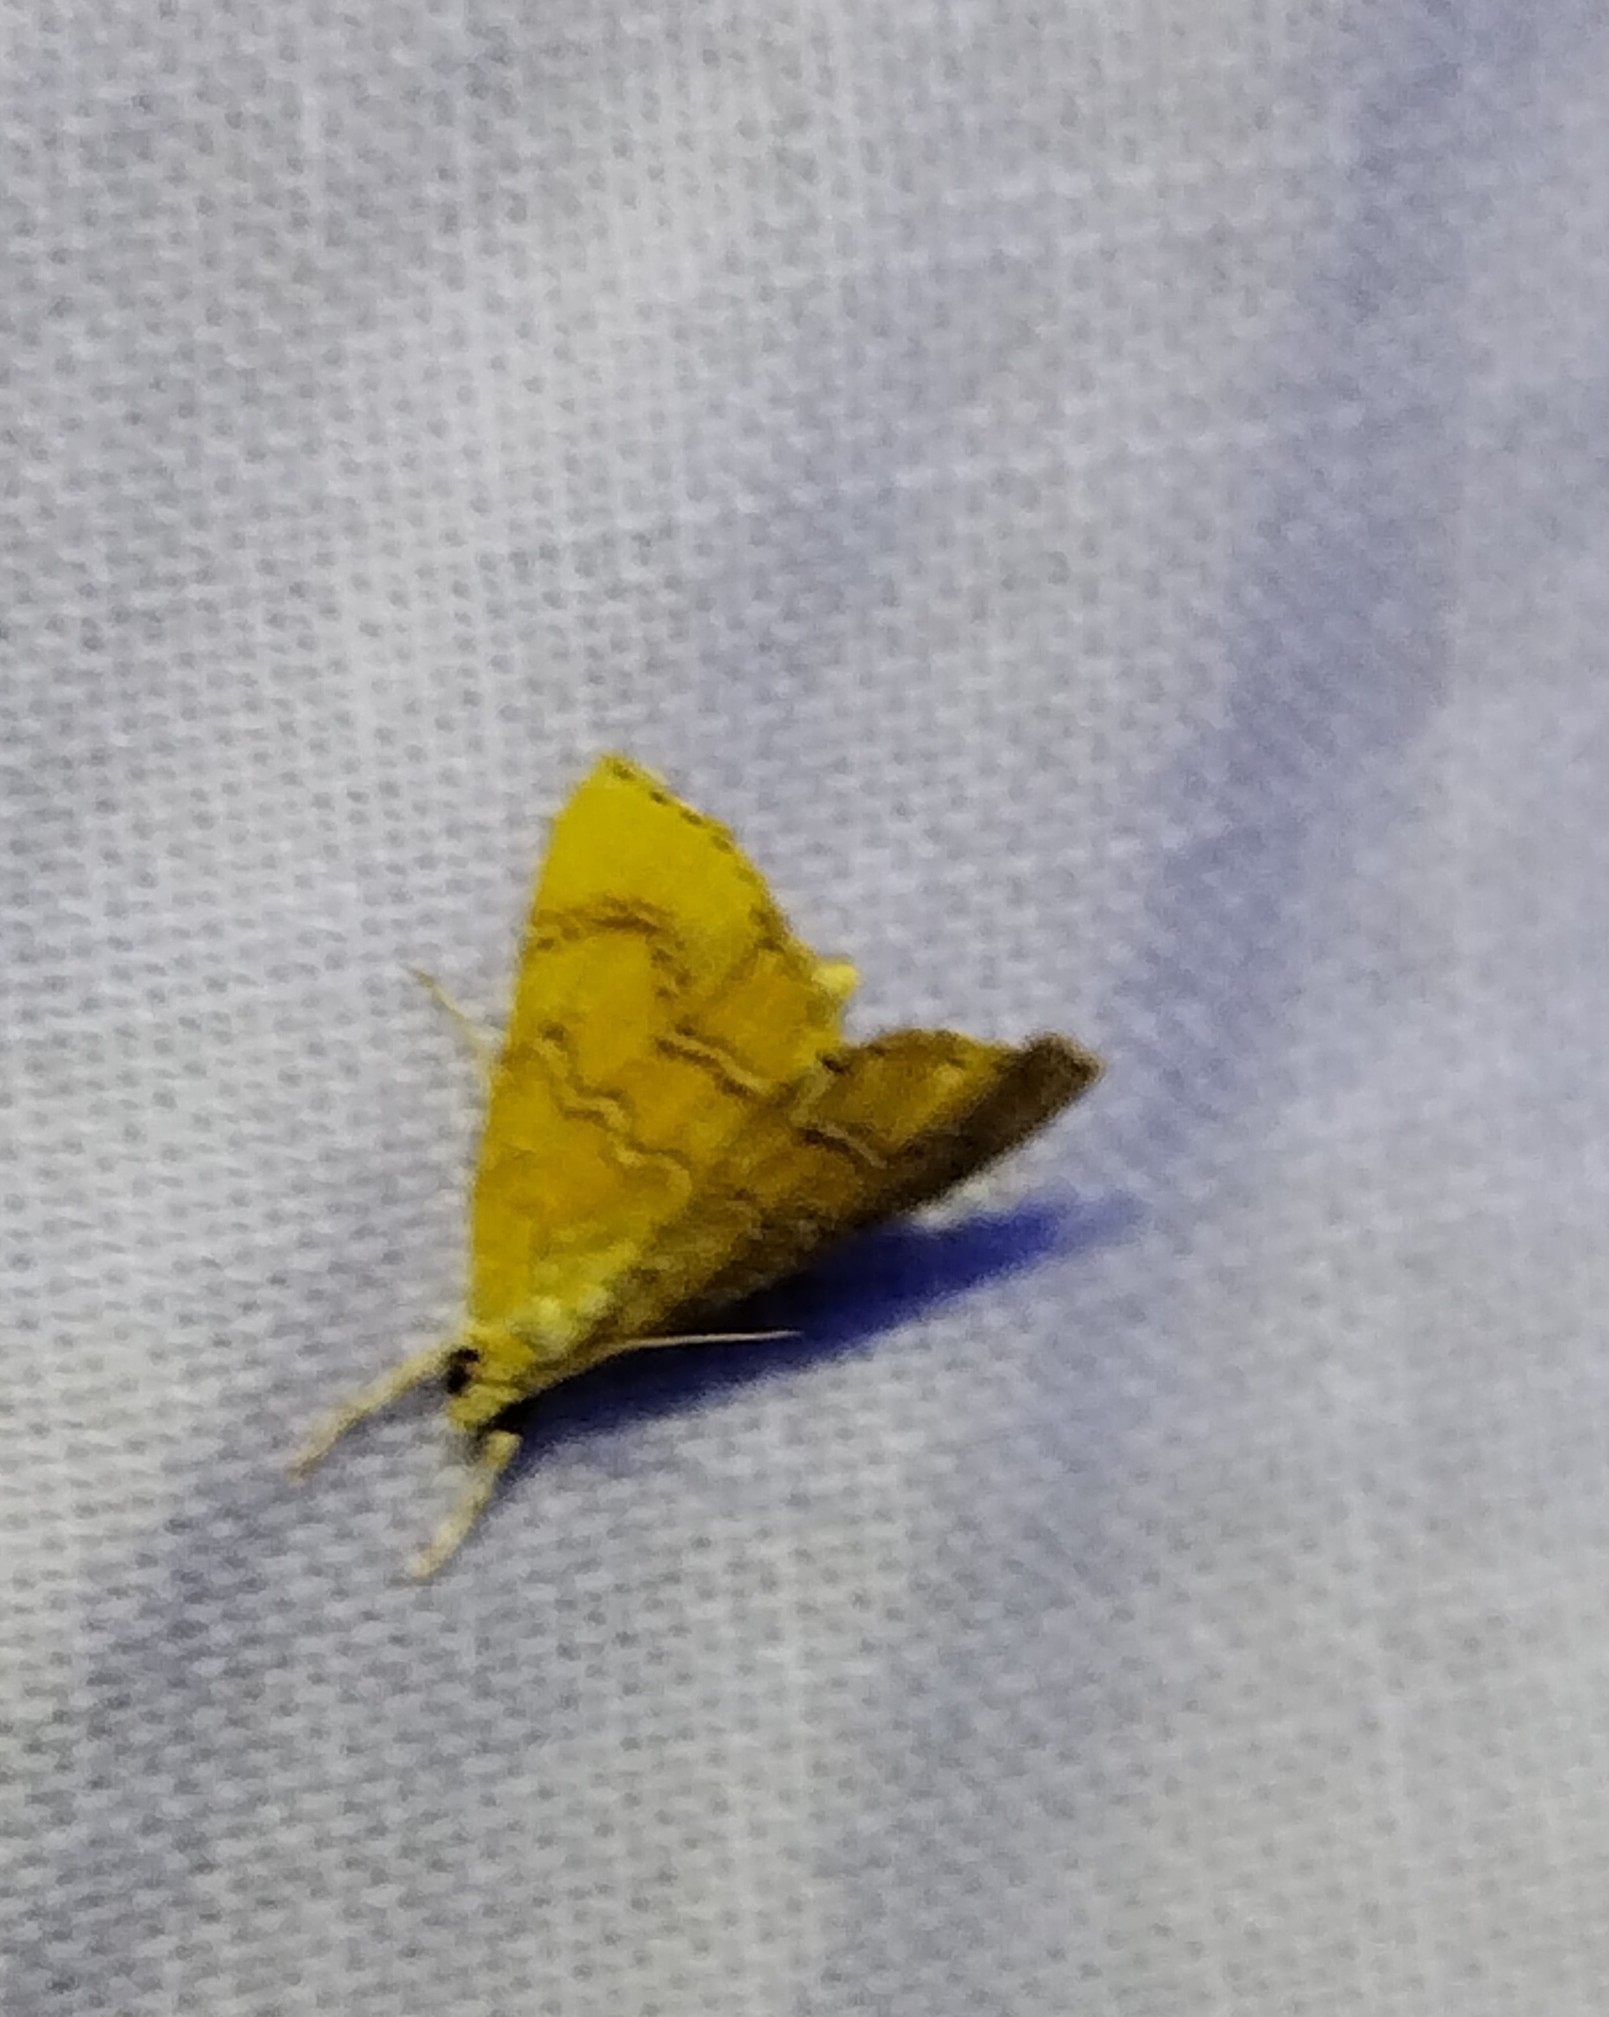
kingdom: Animalia
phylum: Arthropoda
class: Insecta
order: Lepidoptera
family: Crambidae
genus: Glaphyria
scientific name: Glaphyria sesquistrialis
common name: White-roped glaphyria
